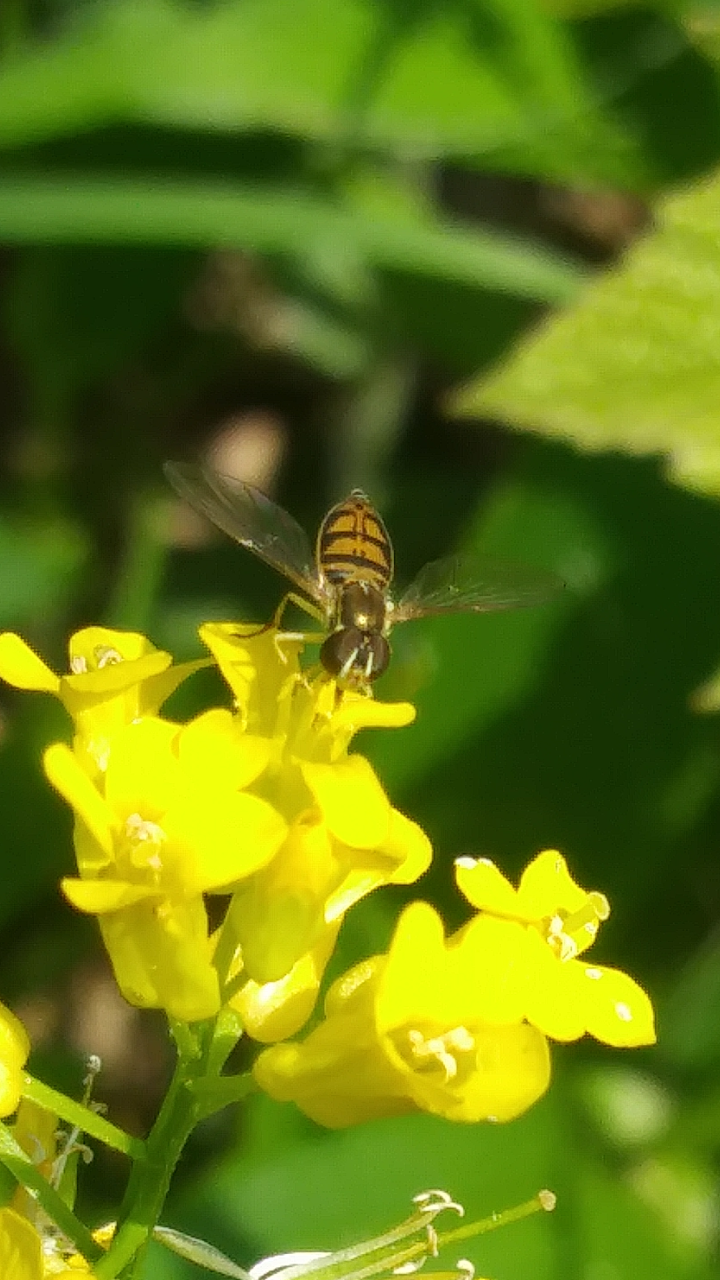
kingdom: Animalia
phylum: Arthropoda
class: Insecta
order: Diptera
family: Syrphidae
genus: Toxomerus
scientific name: Toxomerus marginatus
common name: Syrphid fly
